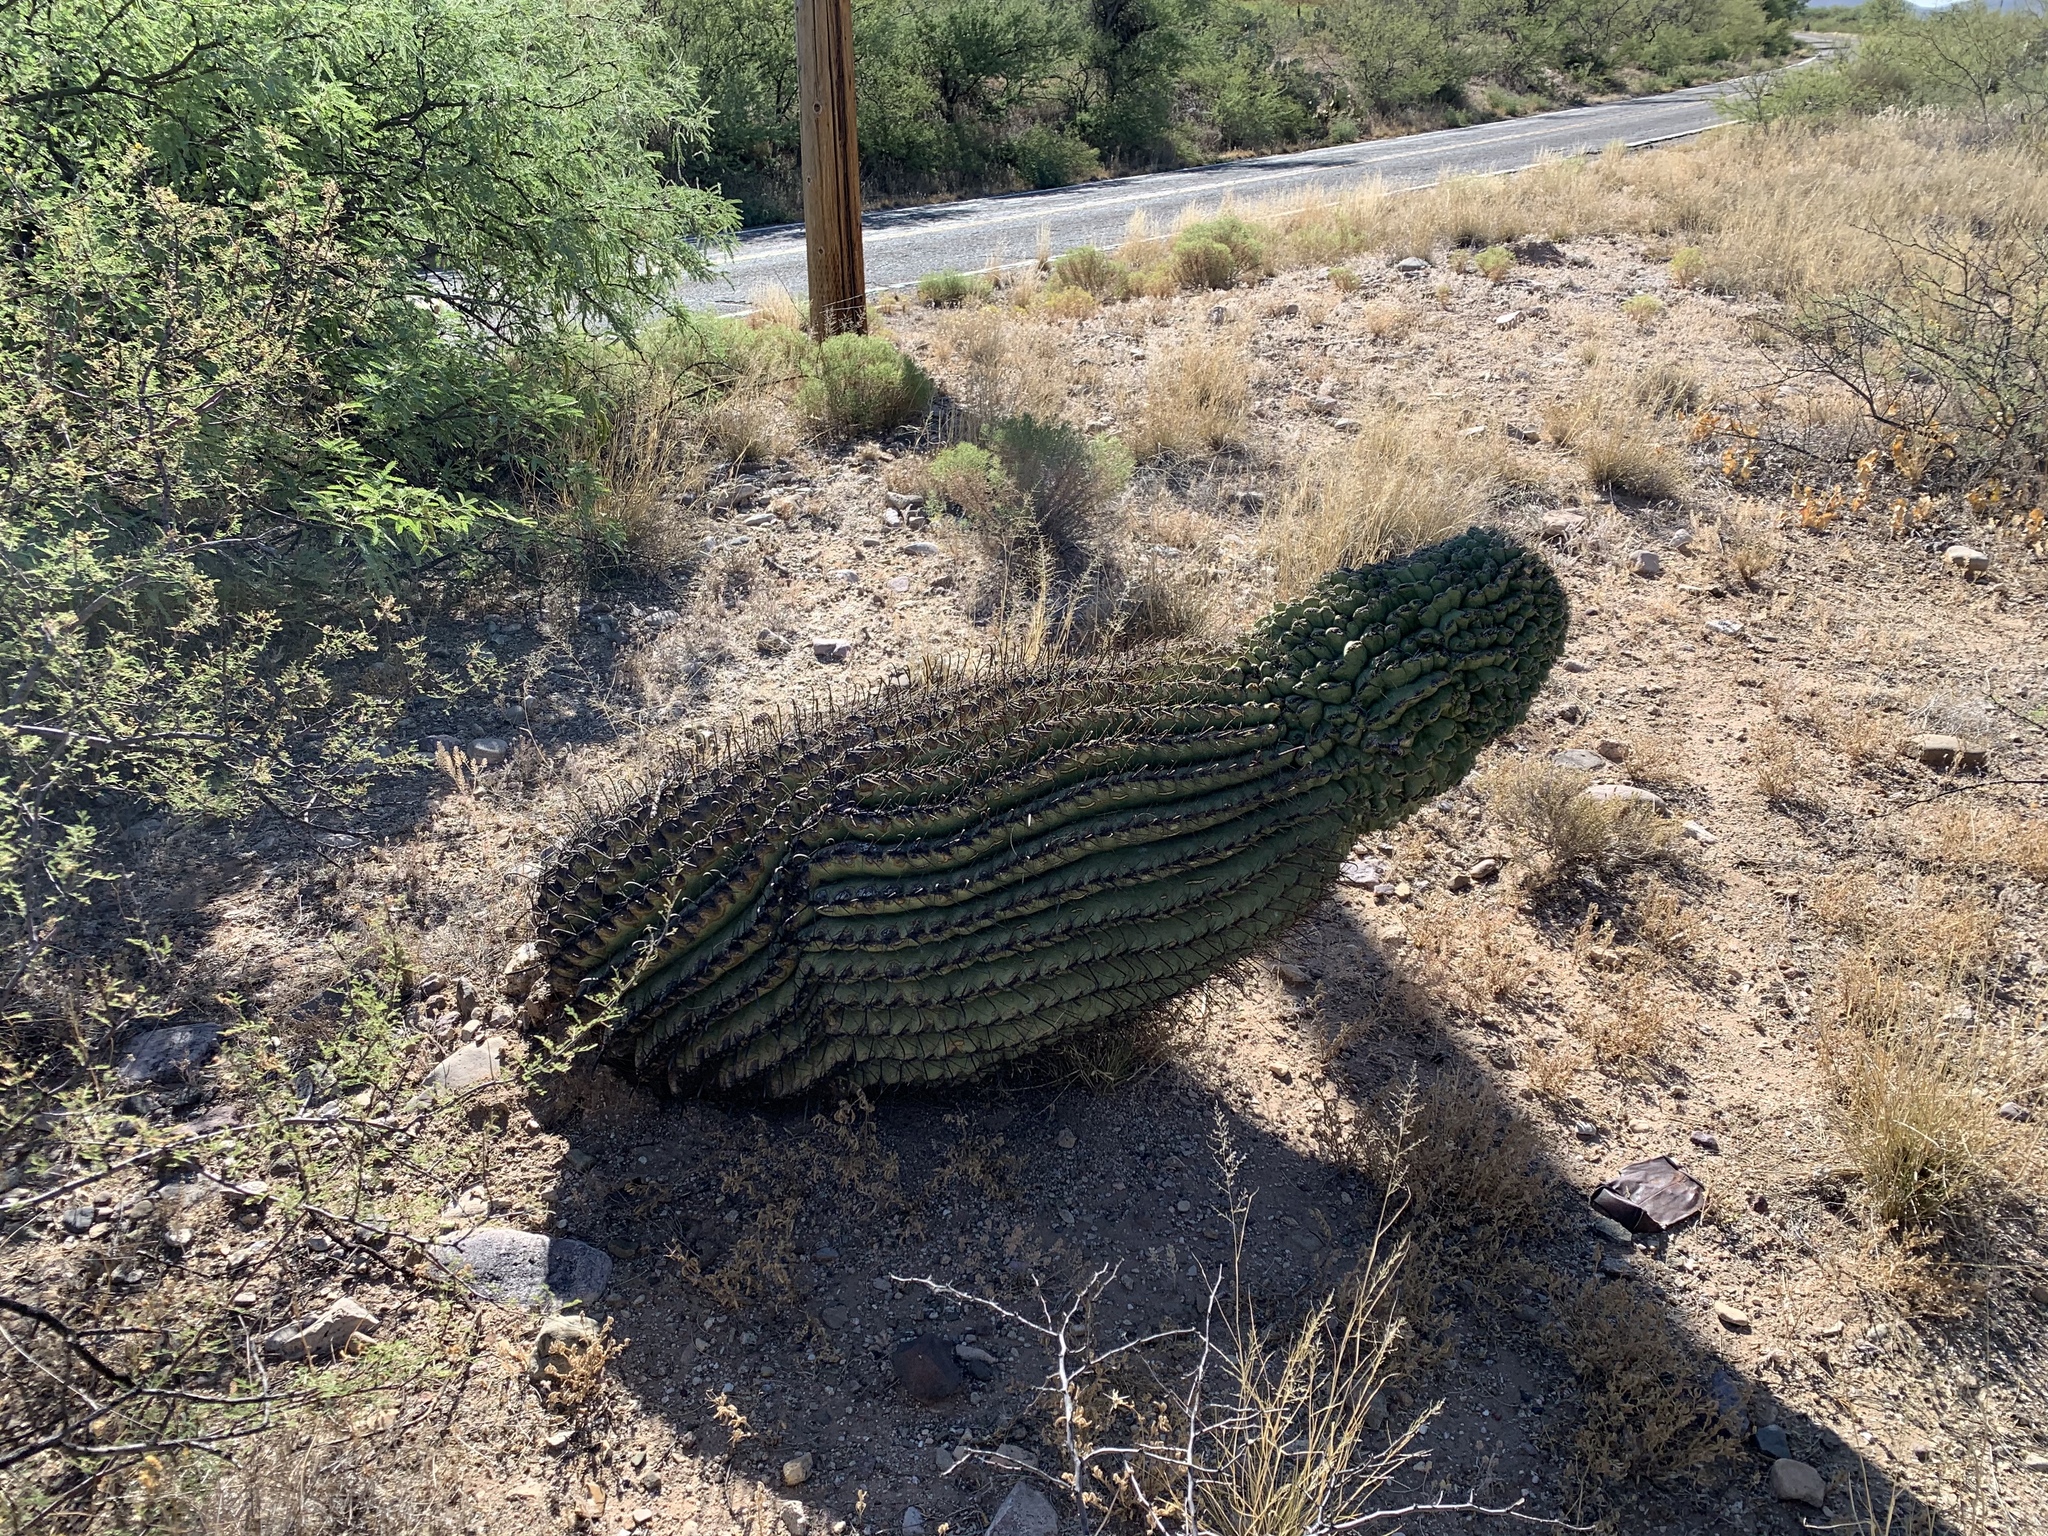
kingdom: Plantae
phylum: Tracheophyta
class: Magnoliopsida
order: Caryophyllales
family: Cactaceae
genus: Ferocactus
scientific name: Ferocactus wislizeni
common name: Candy barrel cactus
